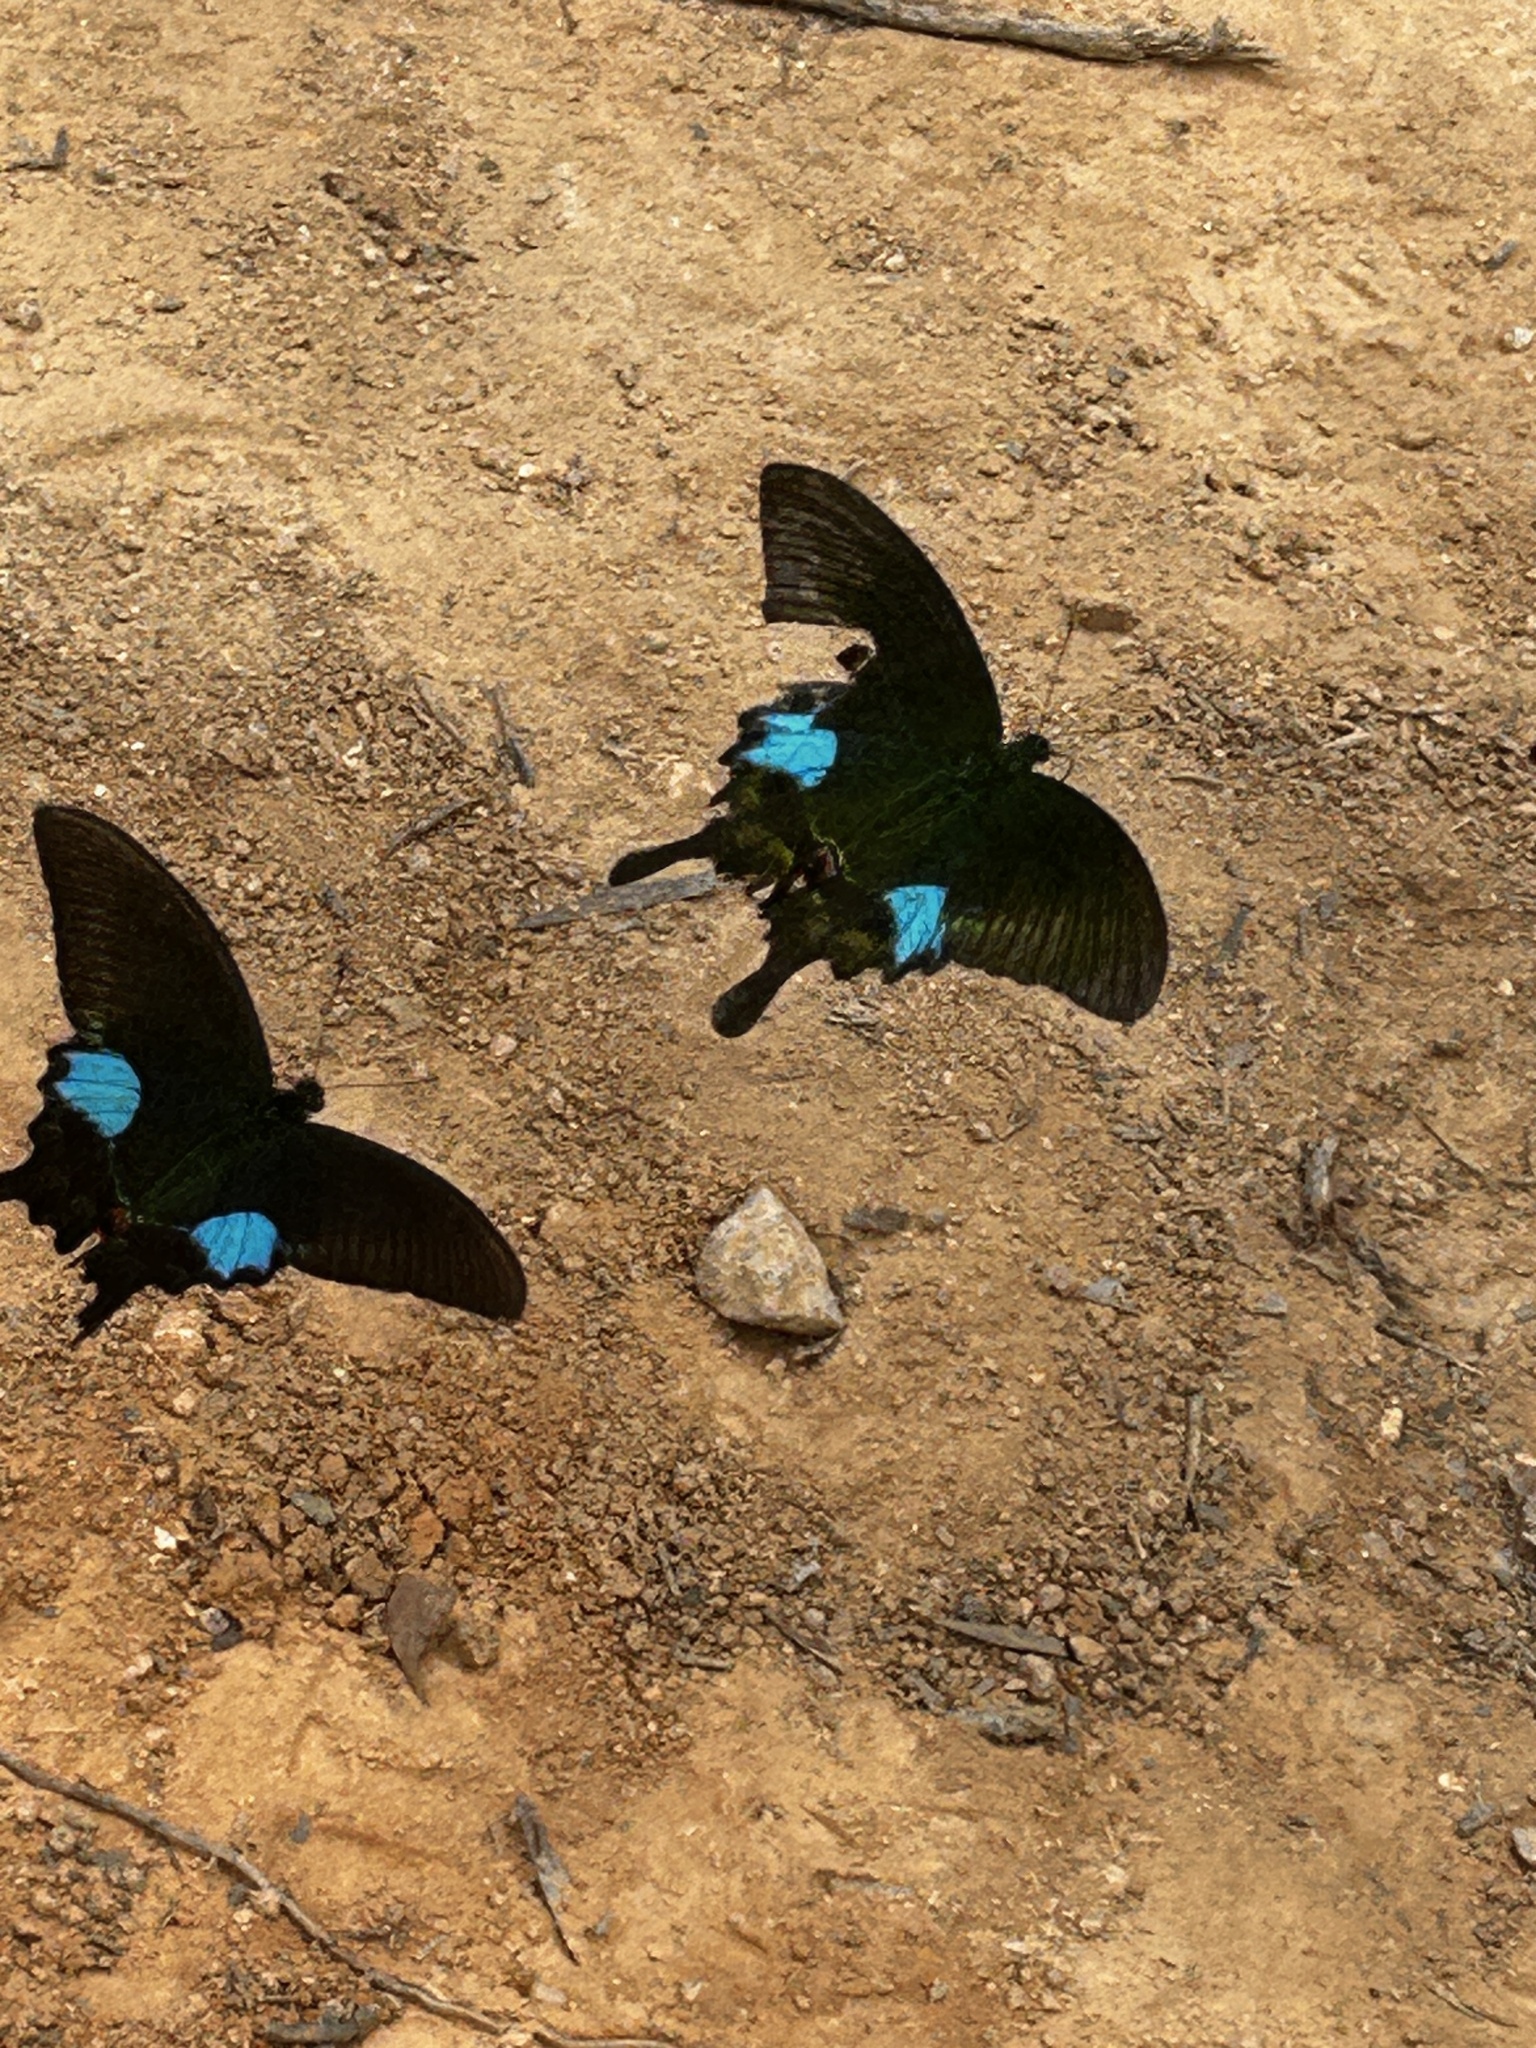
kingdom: Animalia
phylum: Arthropoda
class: Insecta
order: Lepidoptera
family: Papilionidae
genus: Papilio
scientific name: Papilio paris
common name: Paris peacock
